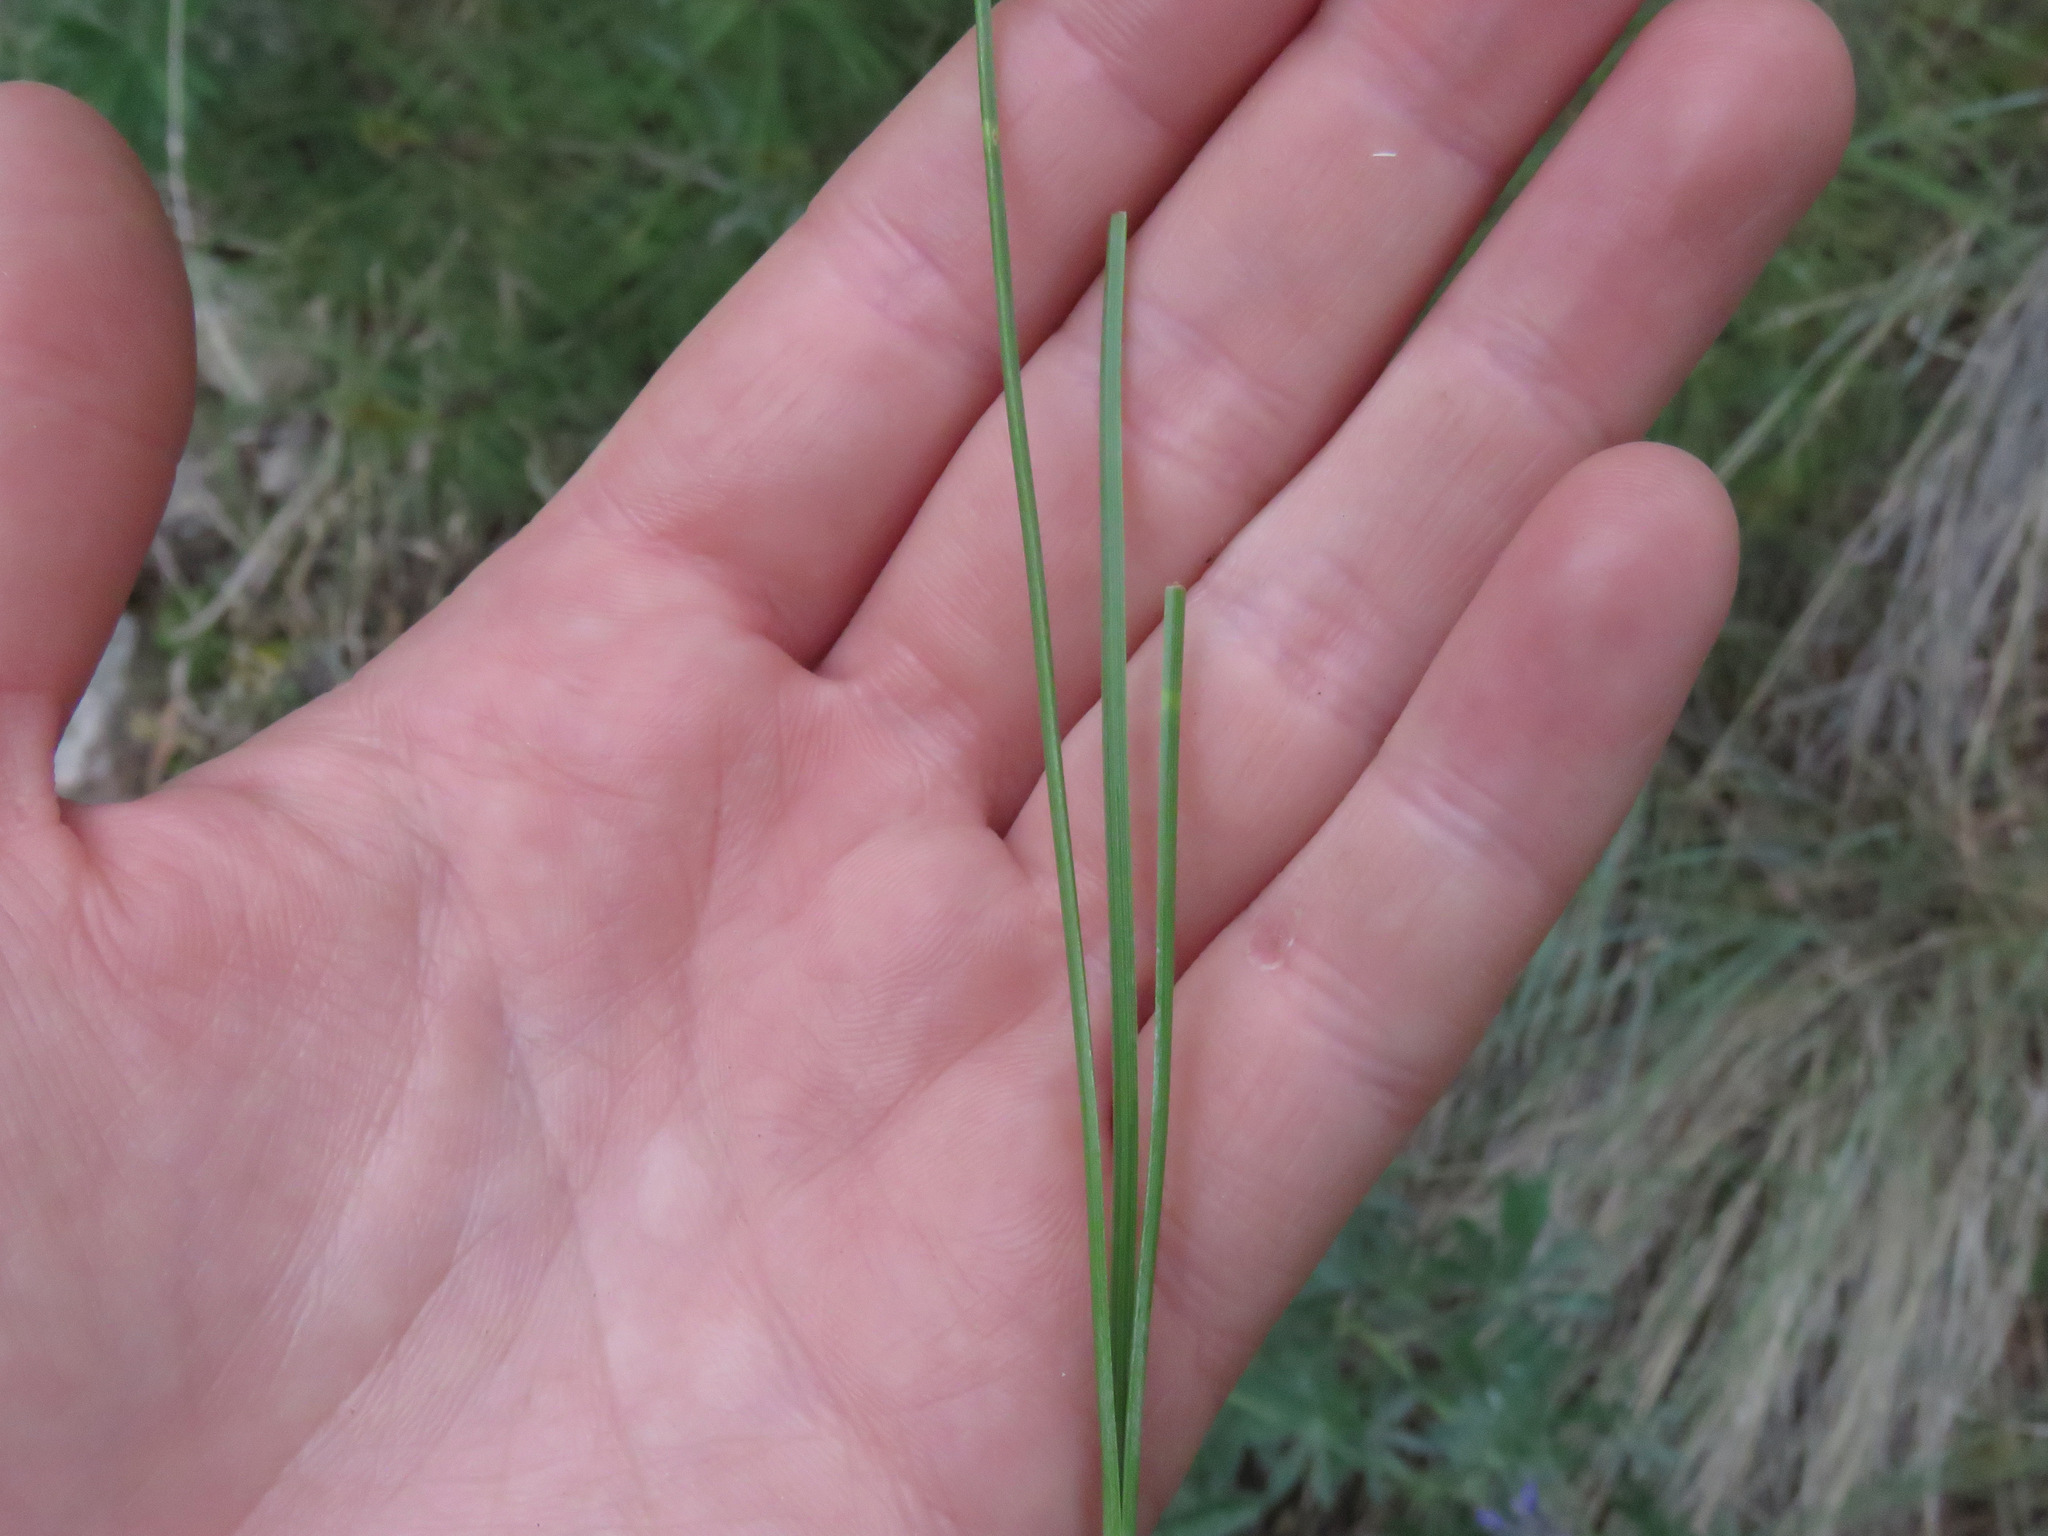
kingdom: Plantae
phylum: Tracheophyta
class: Pinopsida
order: Pinales
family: Pinaceae
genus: Pinus
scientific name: Pinus ponderosa
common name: Western yellow-pine
